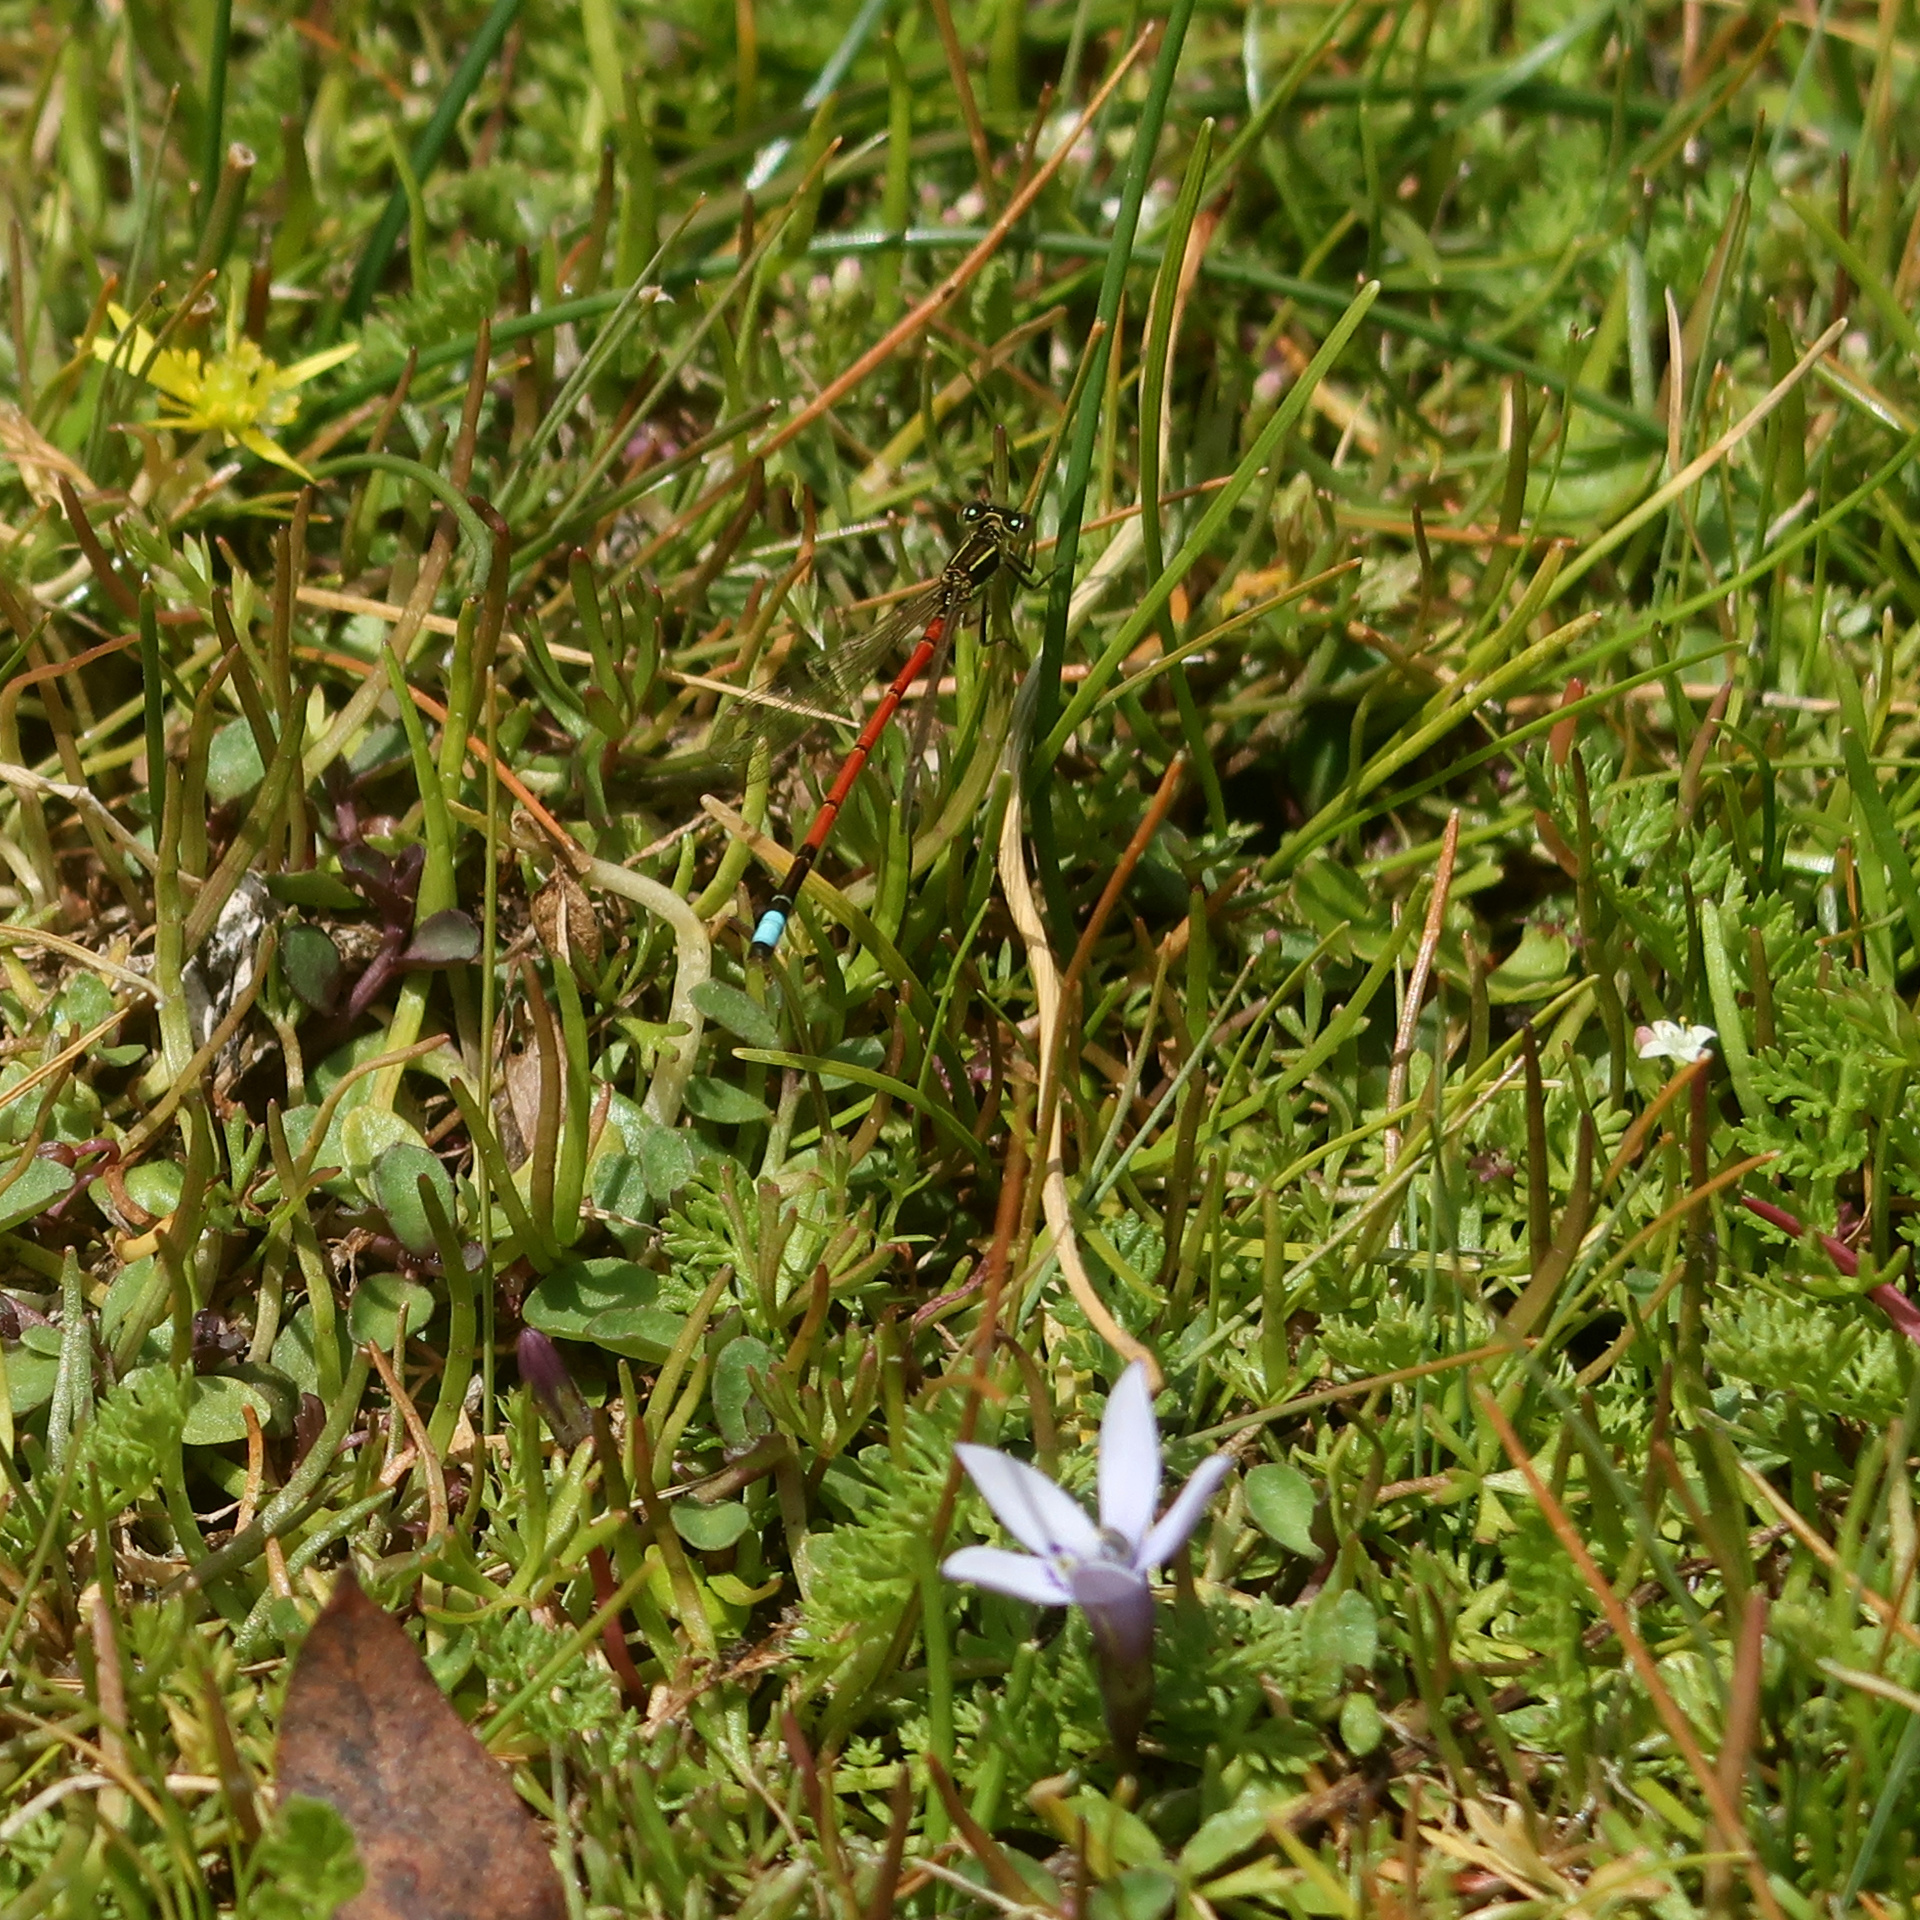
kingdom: Animalia
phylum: Arthropoda
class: Insecta
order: Odonata
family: Coenagrionidae
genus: Ischnura
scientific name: Ischnura aurora
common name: Gossamer damselfly
